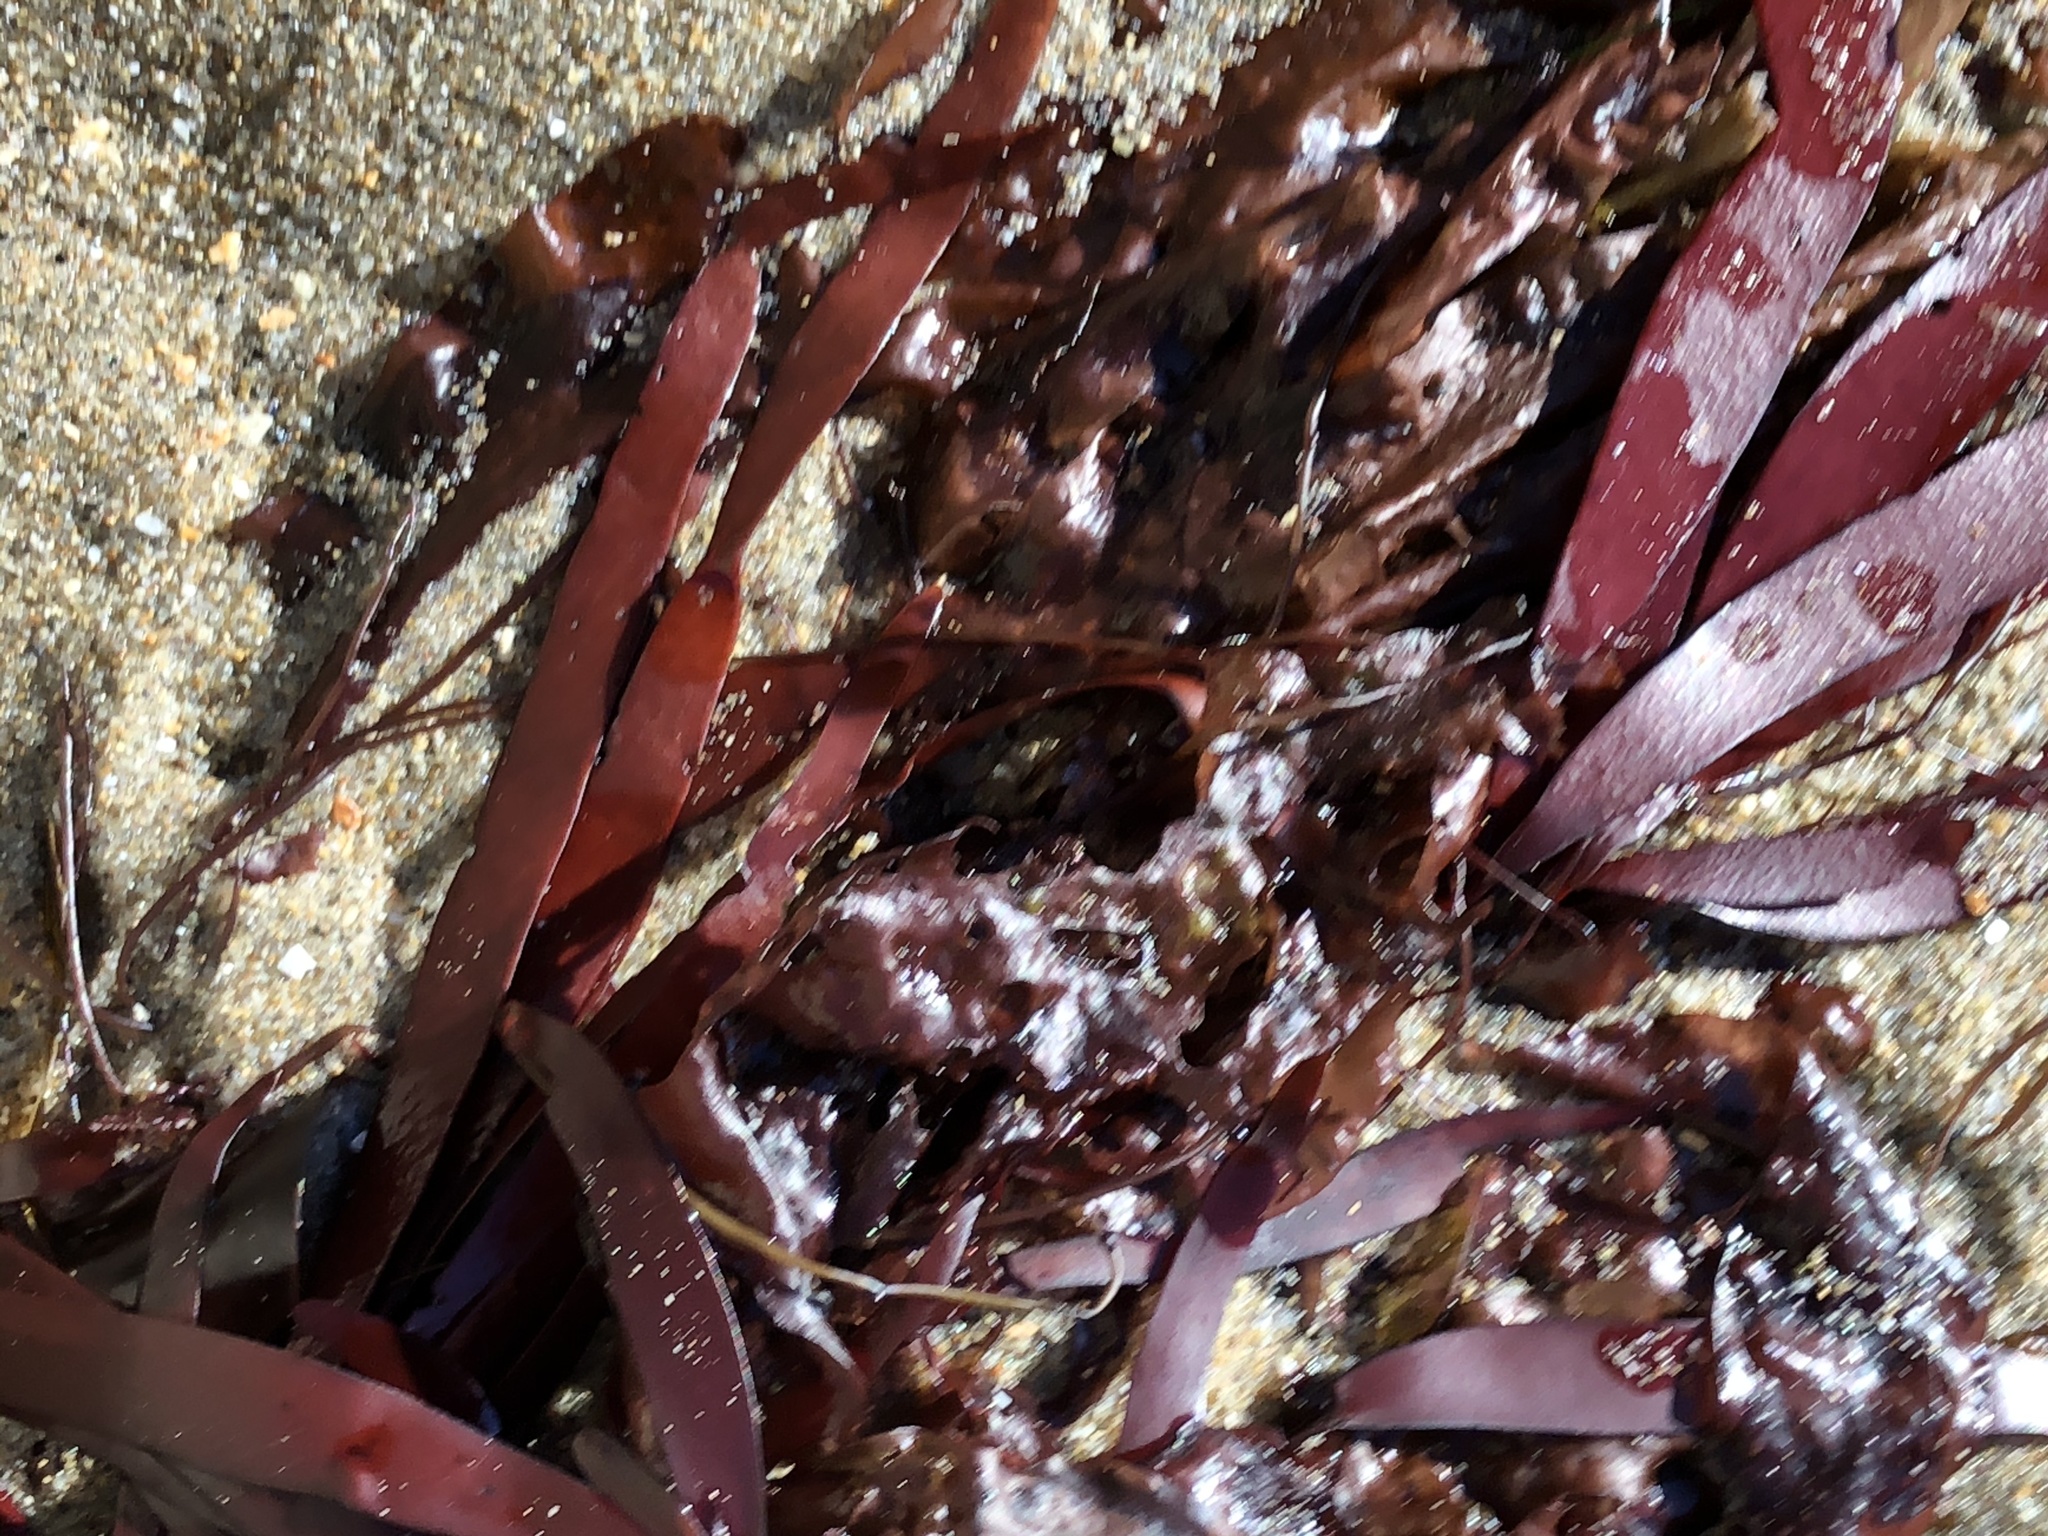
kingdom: Plantae
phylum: Rhodophyta
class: Florideophyceae
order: Halymeniales
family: Halymeniaceae
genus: Grateloupia
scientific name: Grateloupia Prionitis sternbergii
